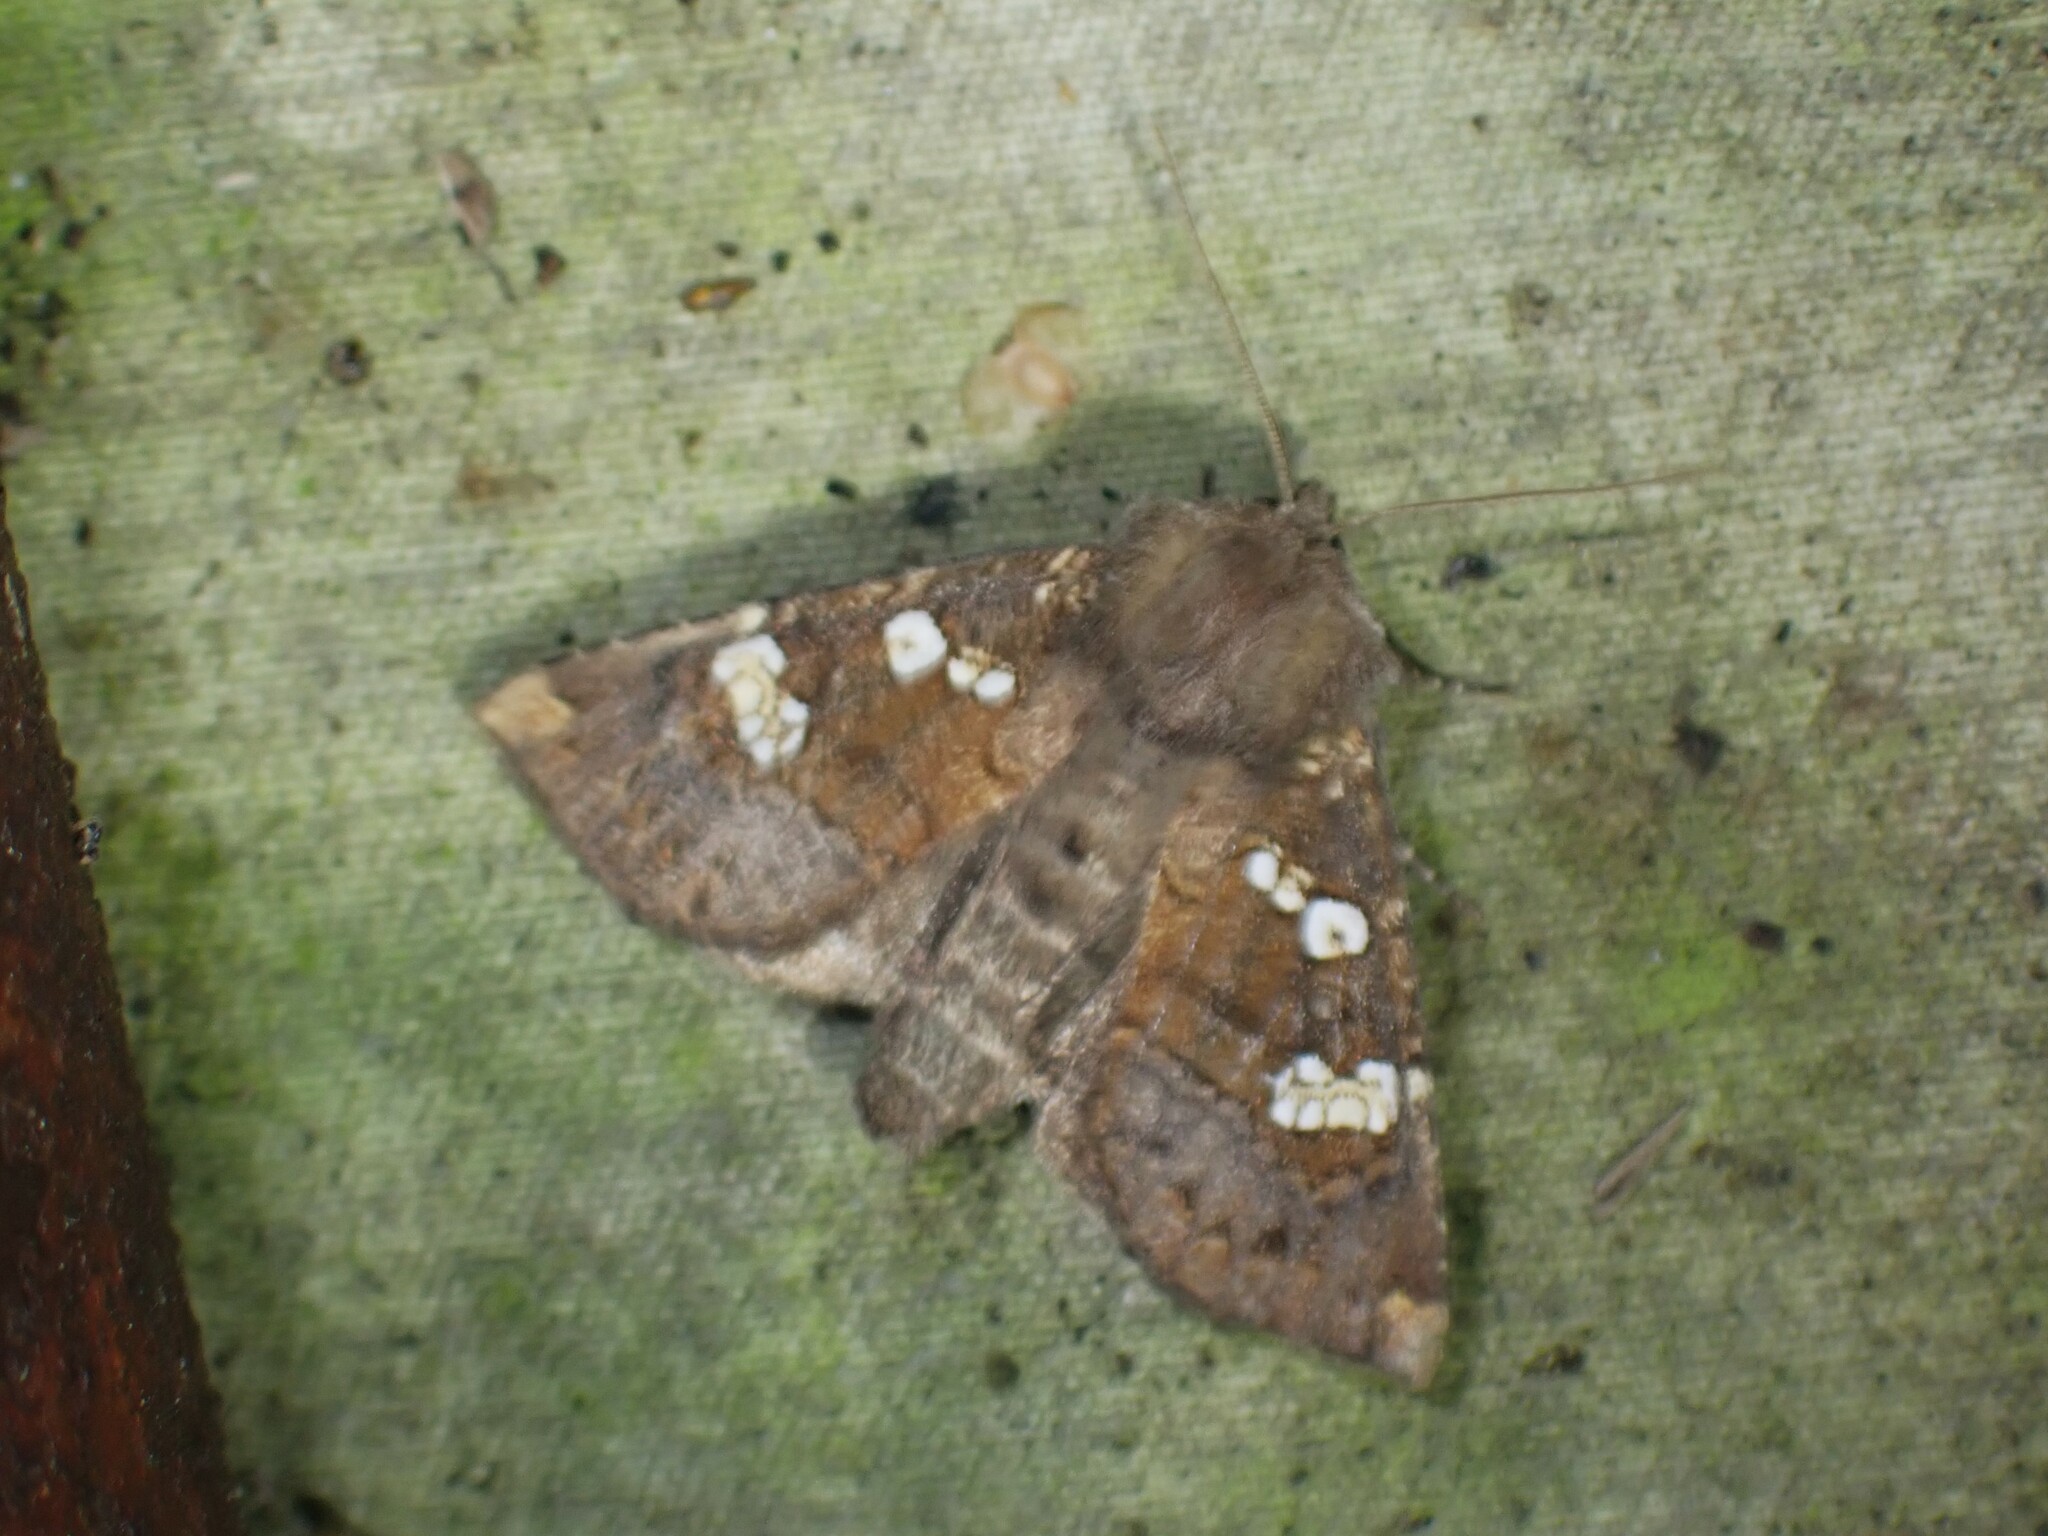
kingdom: Animalia
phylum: Arthropoda
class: Insecta
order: Lepidoptera
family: Noctuidae
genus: Papaipema
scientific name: Papaipema unimoda
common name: Meadow rue borer moth
